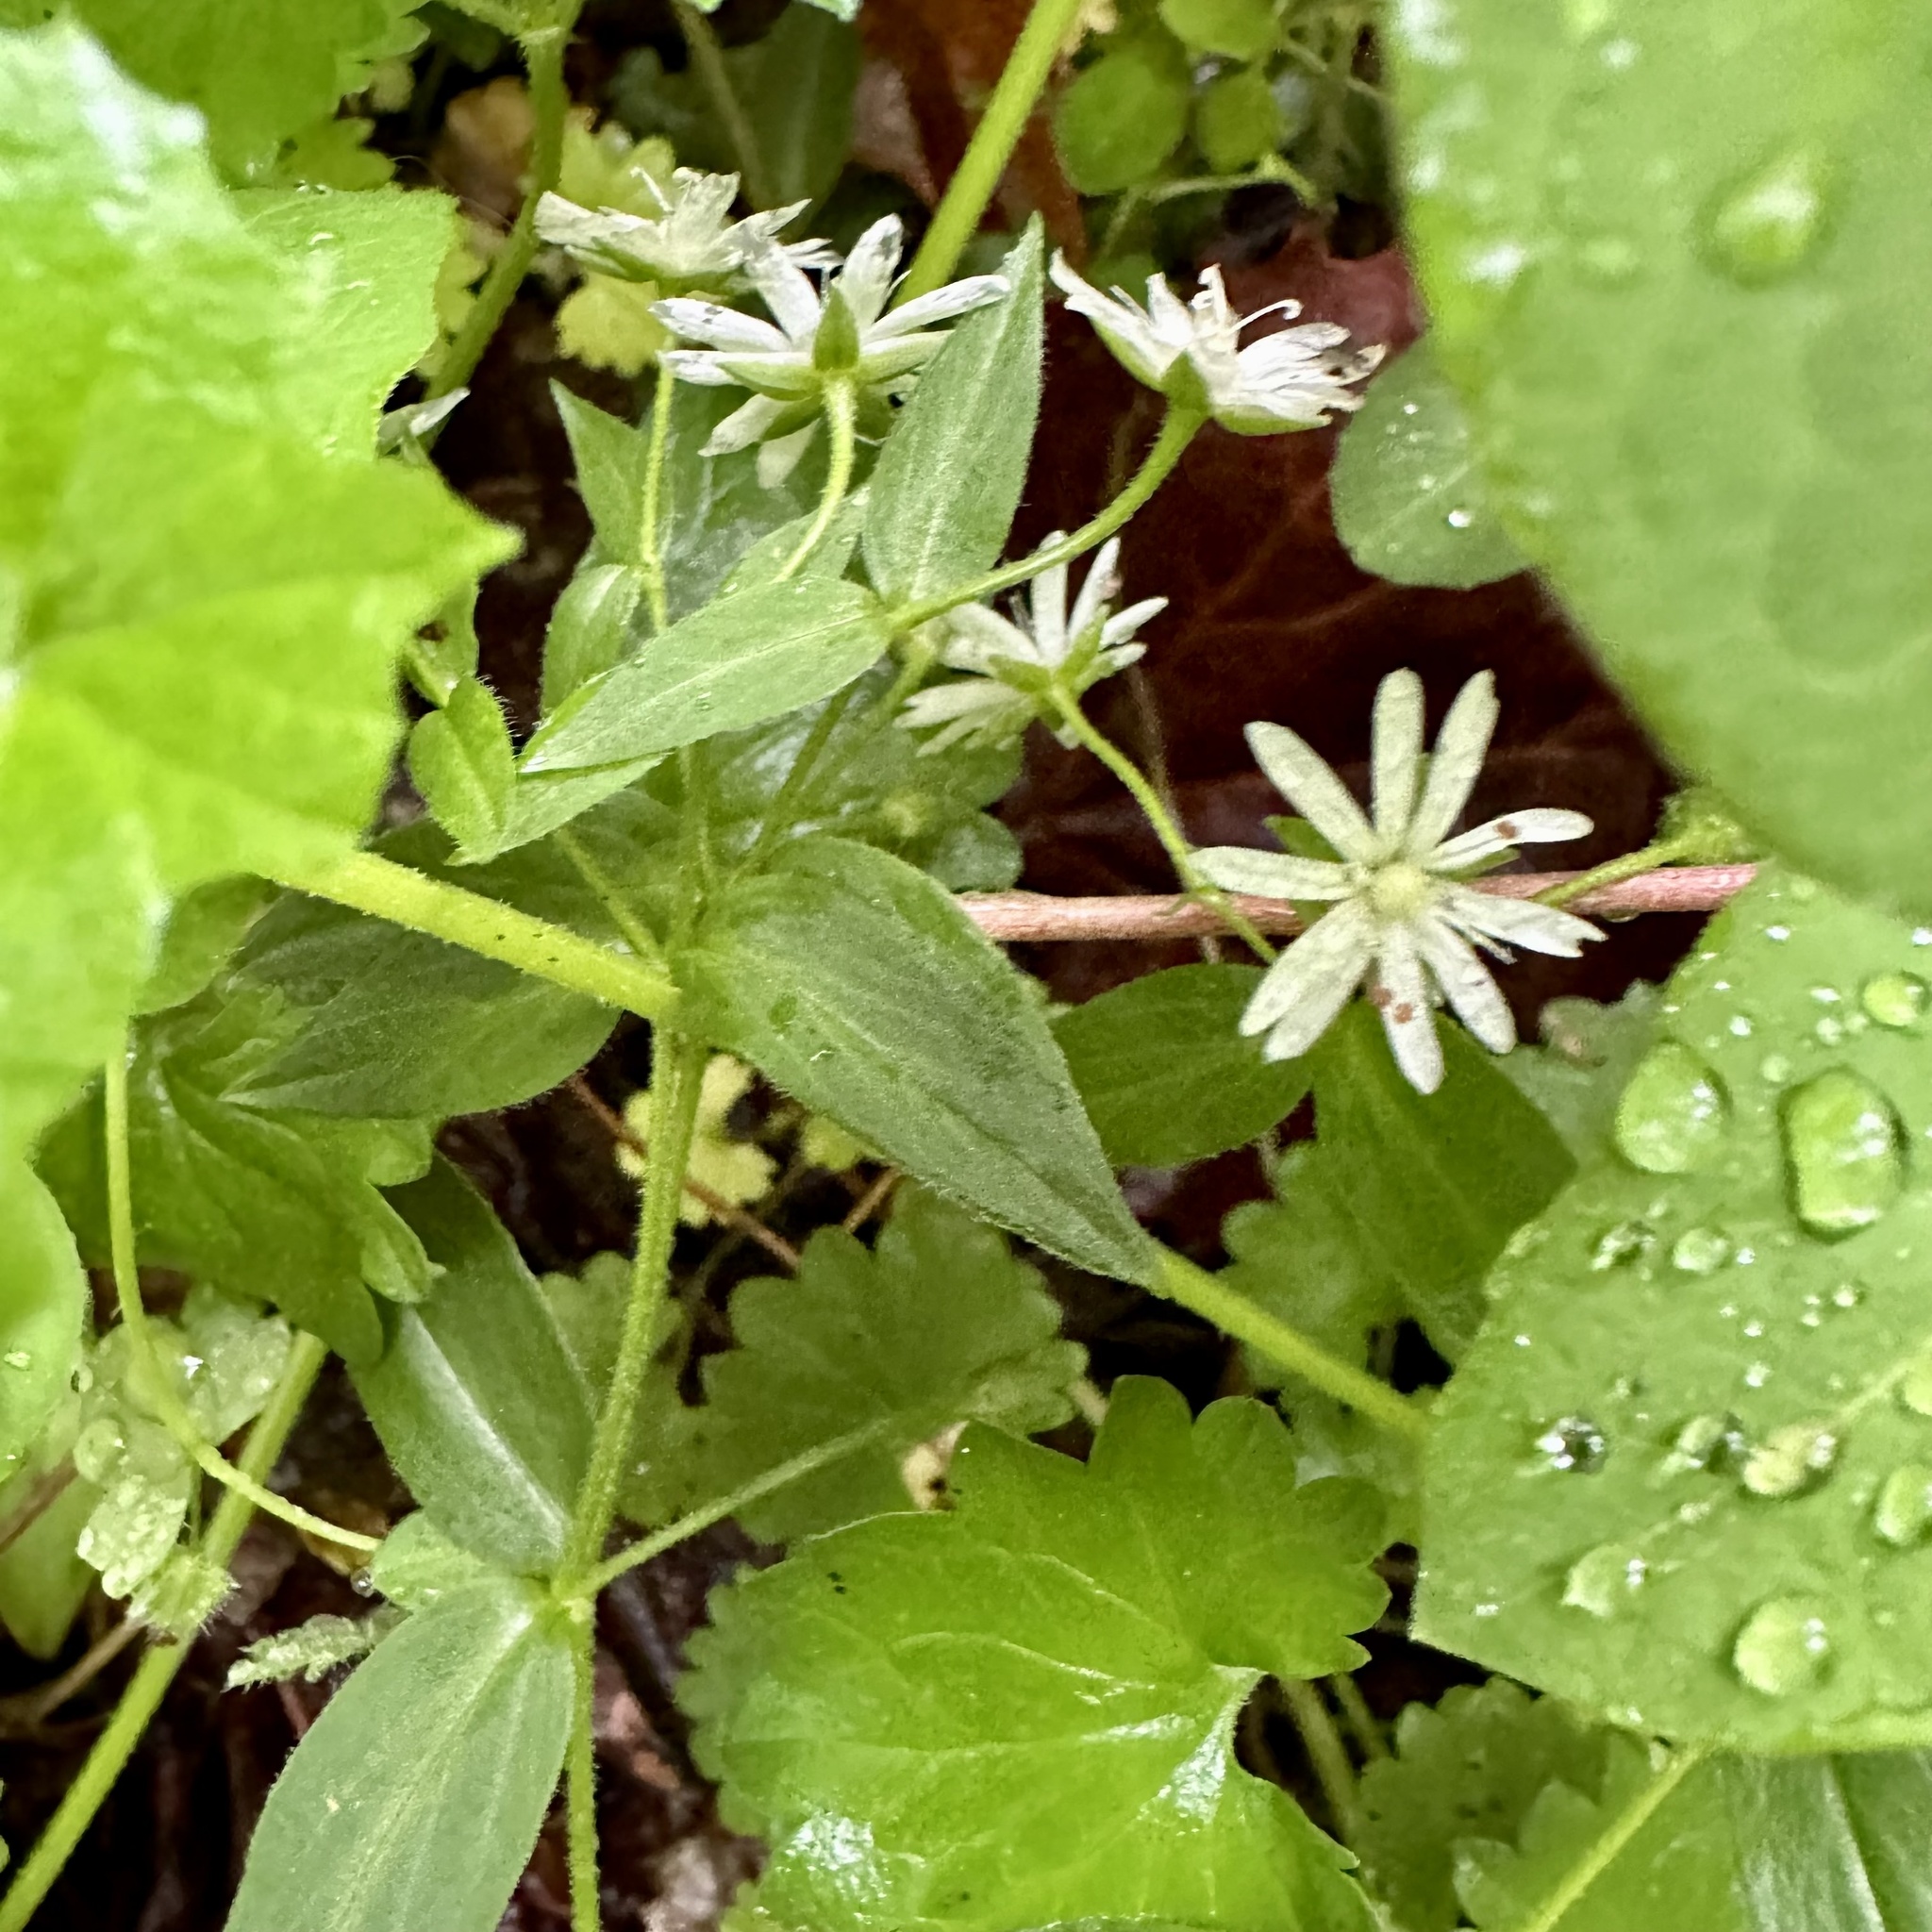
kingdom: Plantae
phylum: Tracheophyta
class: Magnoliopsida
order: Caryophyllales
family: Caryophyllaceae
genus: Stellaria
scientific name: Stellaria pubera
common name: Star chickweed
